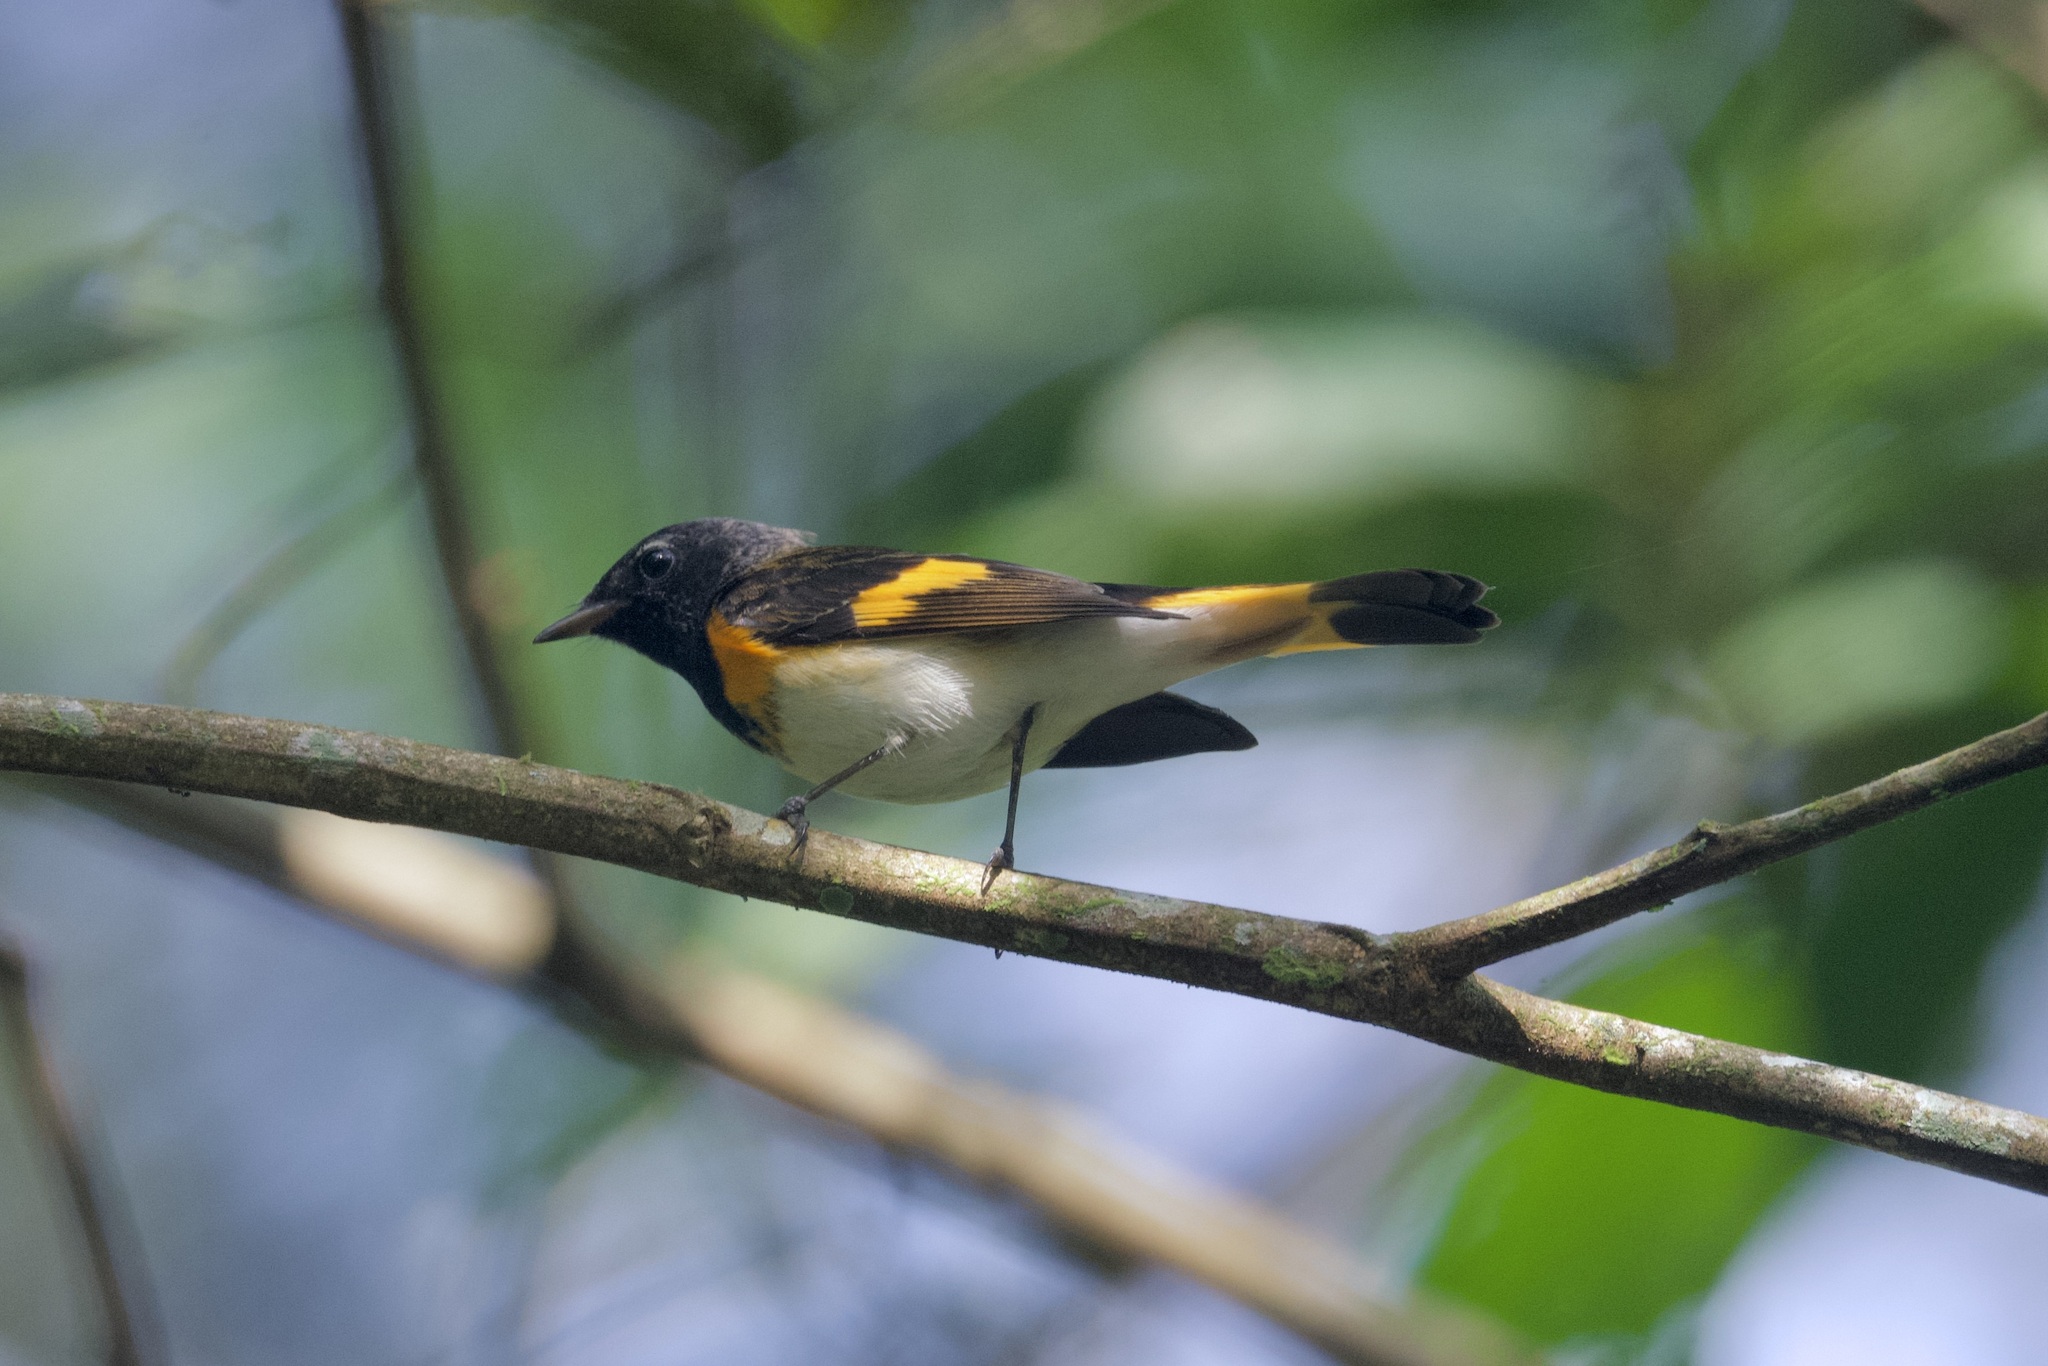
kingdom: Animalia
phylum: Chordata
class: Aves
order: Passeriformes
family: Parulidae
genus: Setophaga
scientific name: Setophaga ruticilla
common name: American redstart
